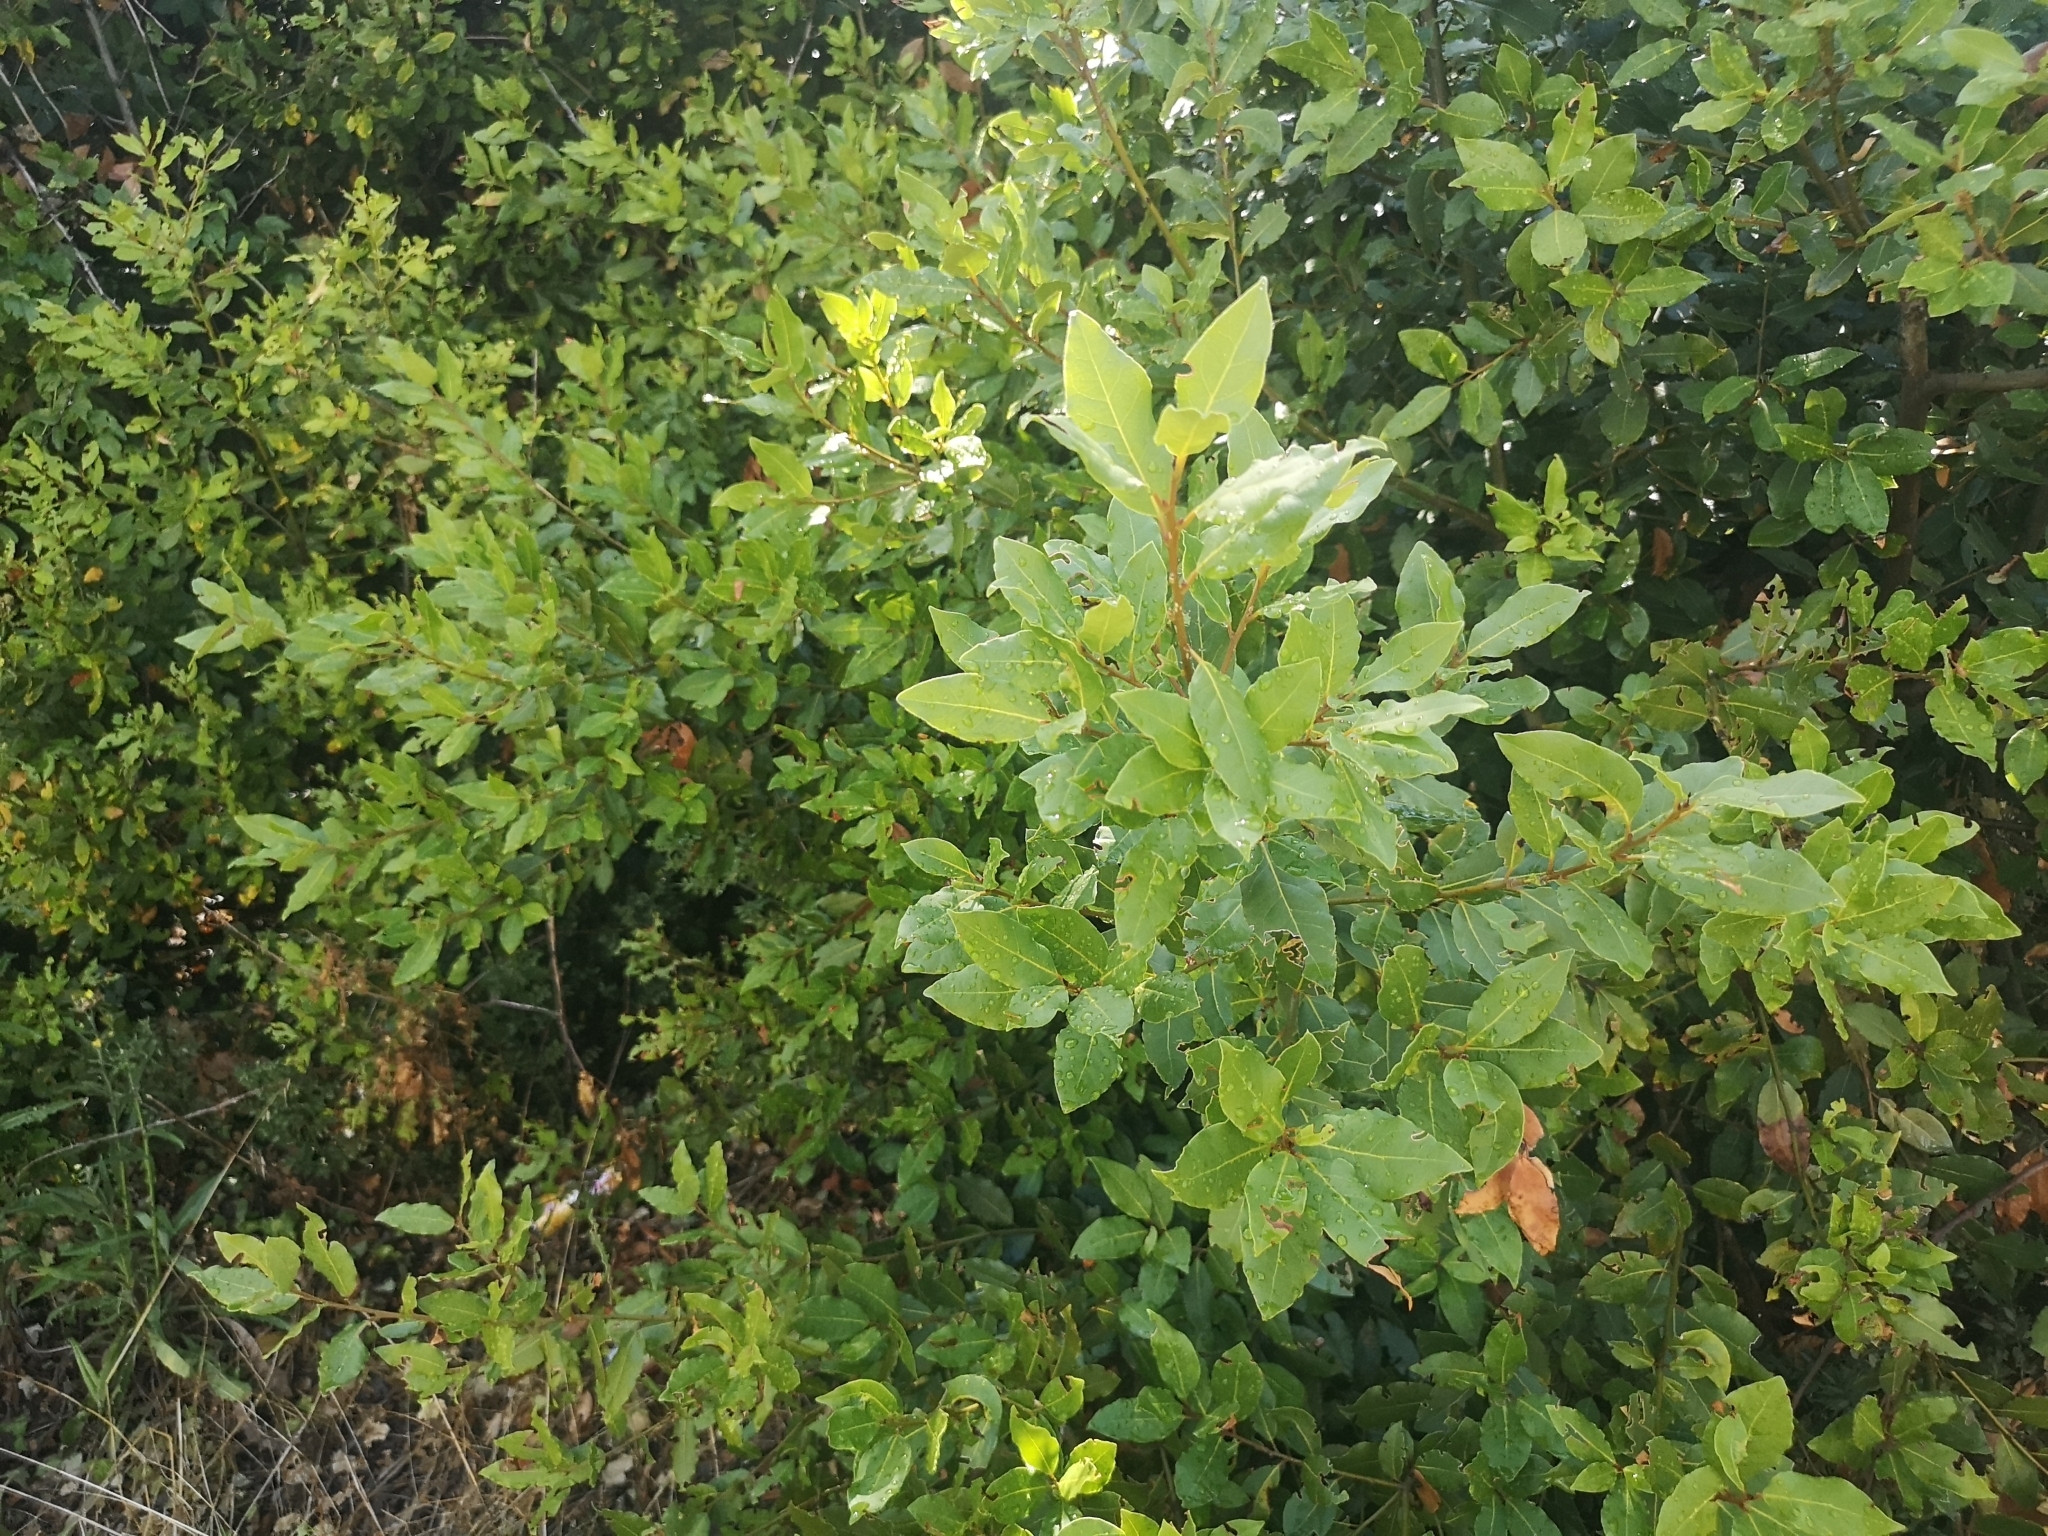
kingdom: Plantae
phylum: Tracheophyta
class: Magnoliopsida
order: Laurales
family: Lauraceae
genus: Laurus
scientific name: Laurus nobilis
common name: Bay
